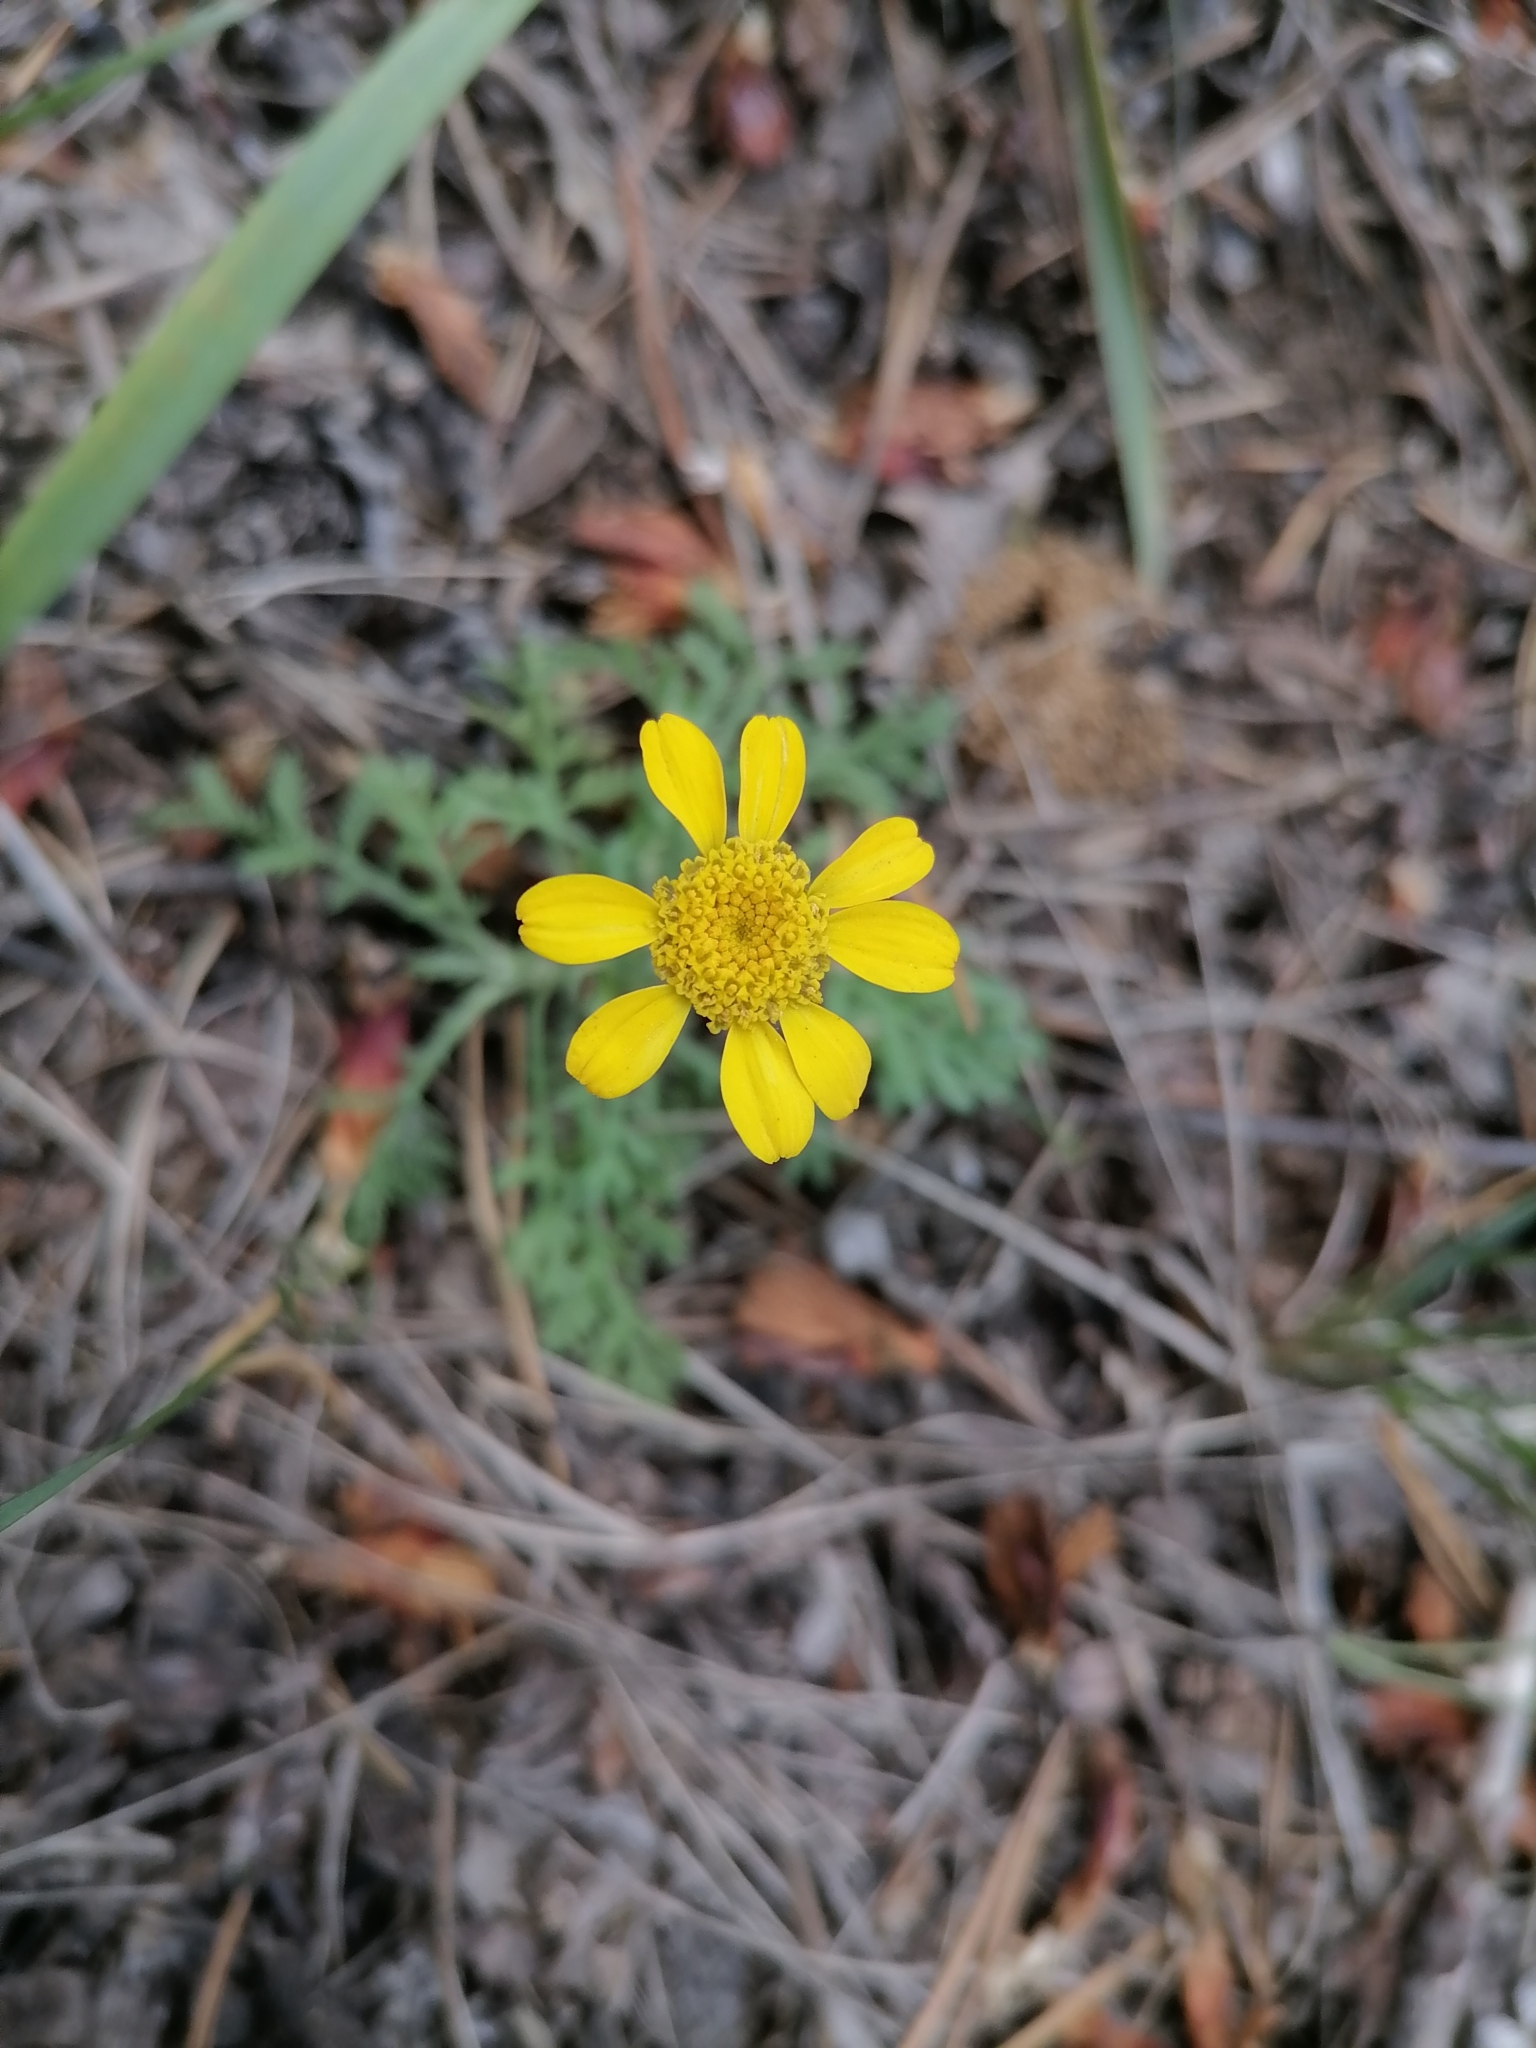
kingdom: Plantae
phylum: Tracheophyta
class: Magnoliopsida
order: Asterales
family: Asteraceae
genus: Cota
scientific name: Cota tinctoria
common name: Golden chamomile
